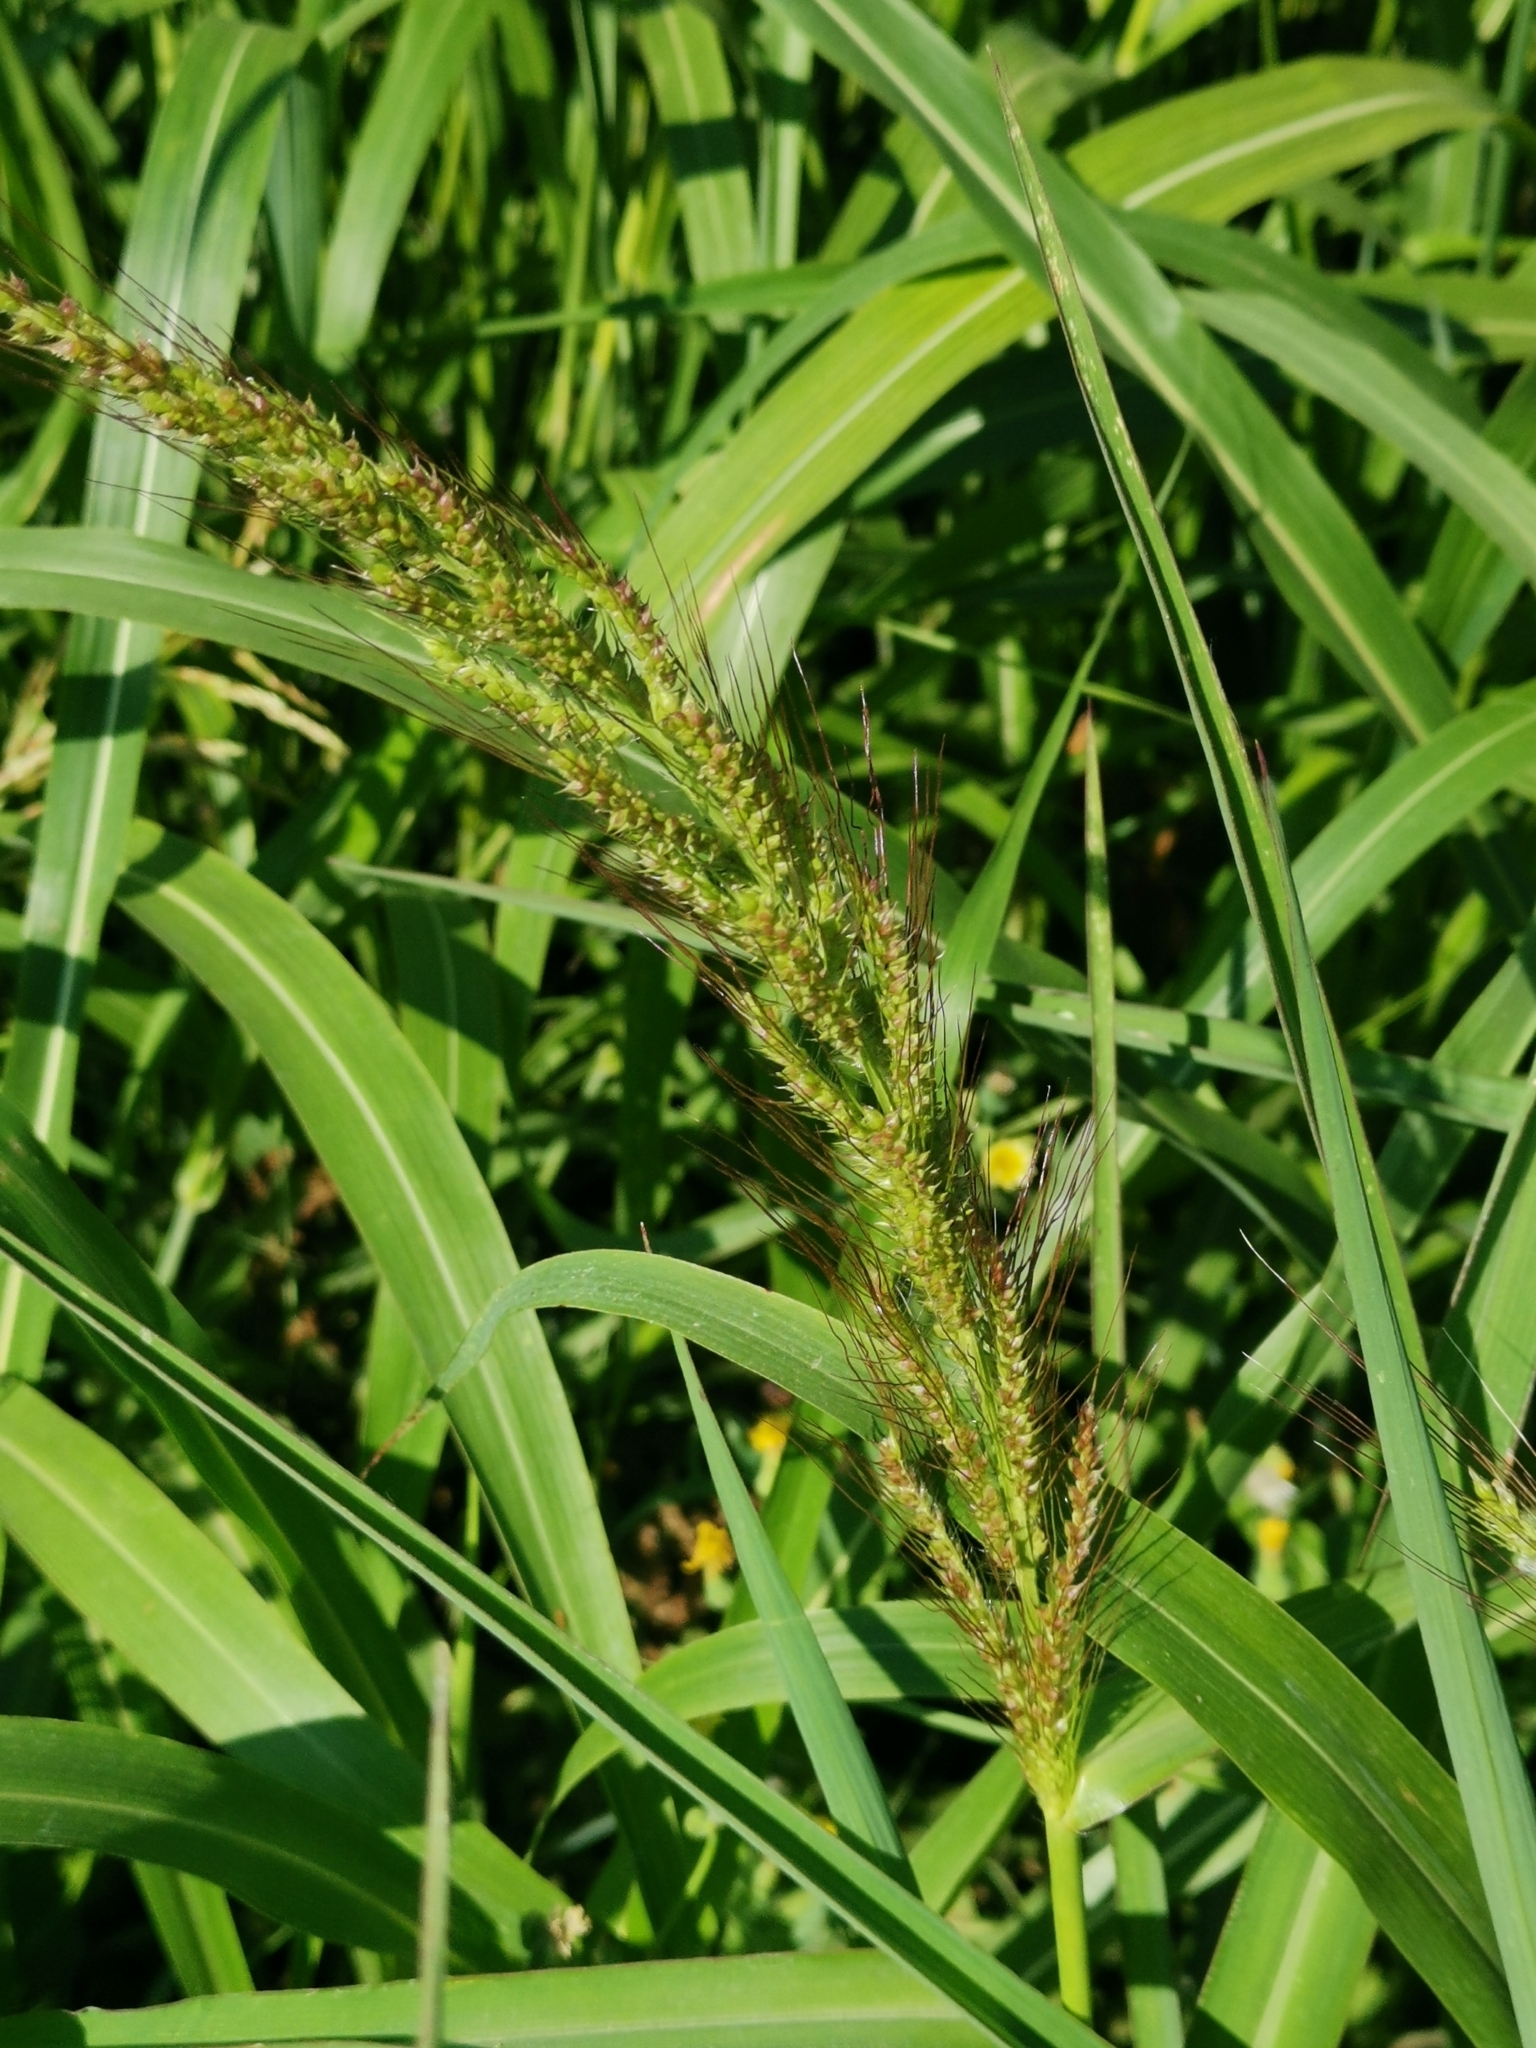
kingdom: Plantae
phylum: Tracheophyta
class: Liliopsida
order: Poales
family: Poaceae
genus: Echinochloa
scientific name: Echinochloa crus-galli
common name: Cockspur
